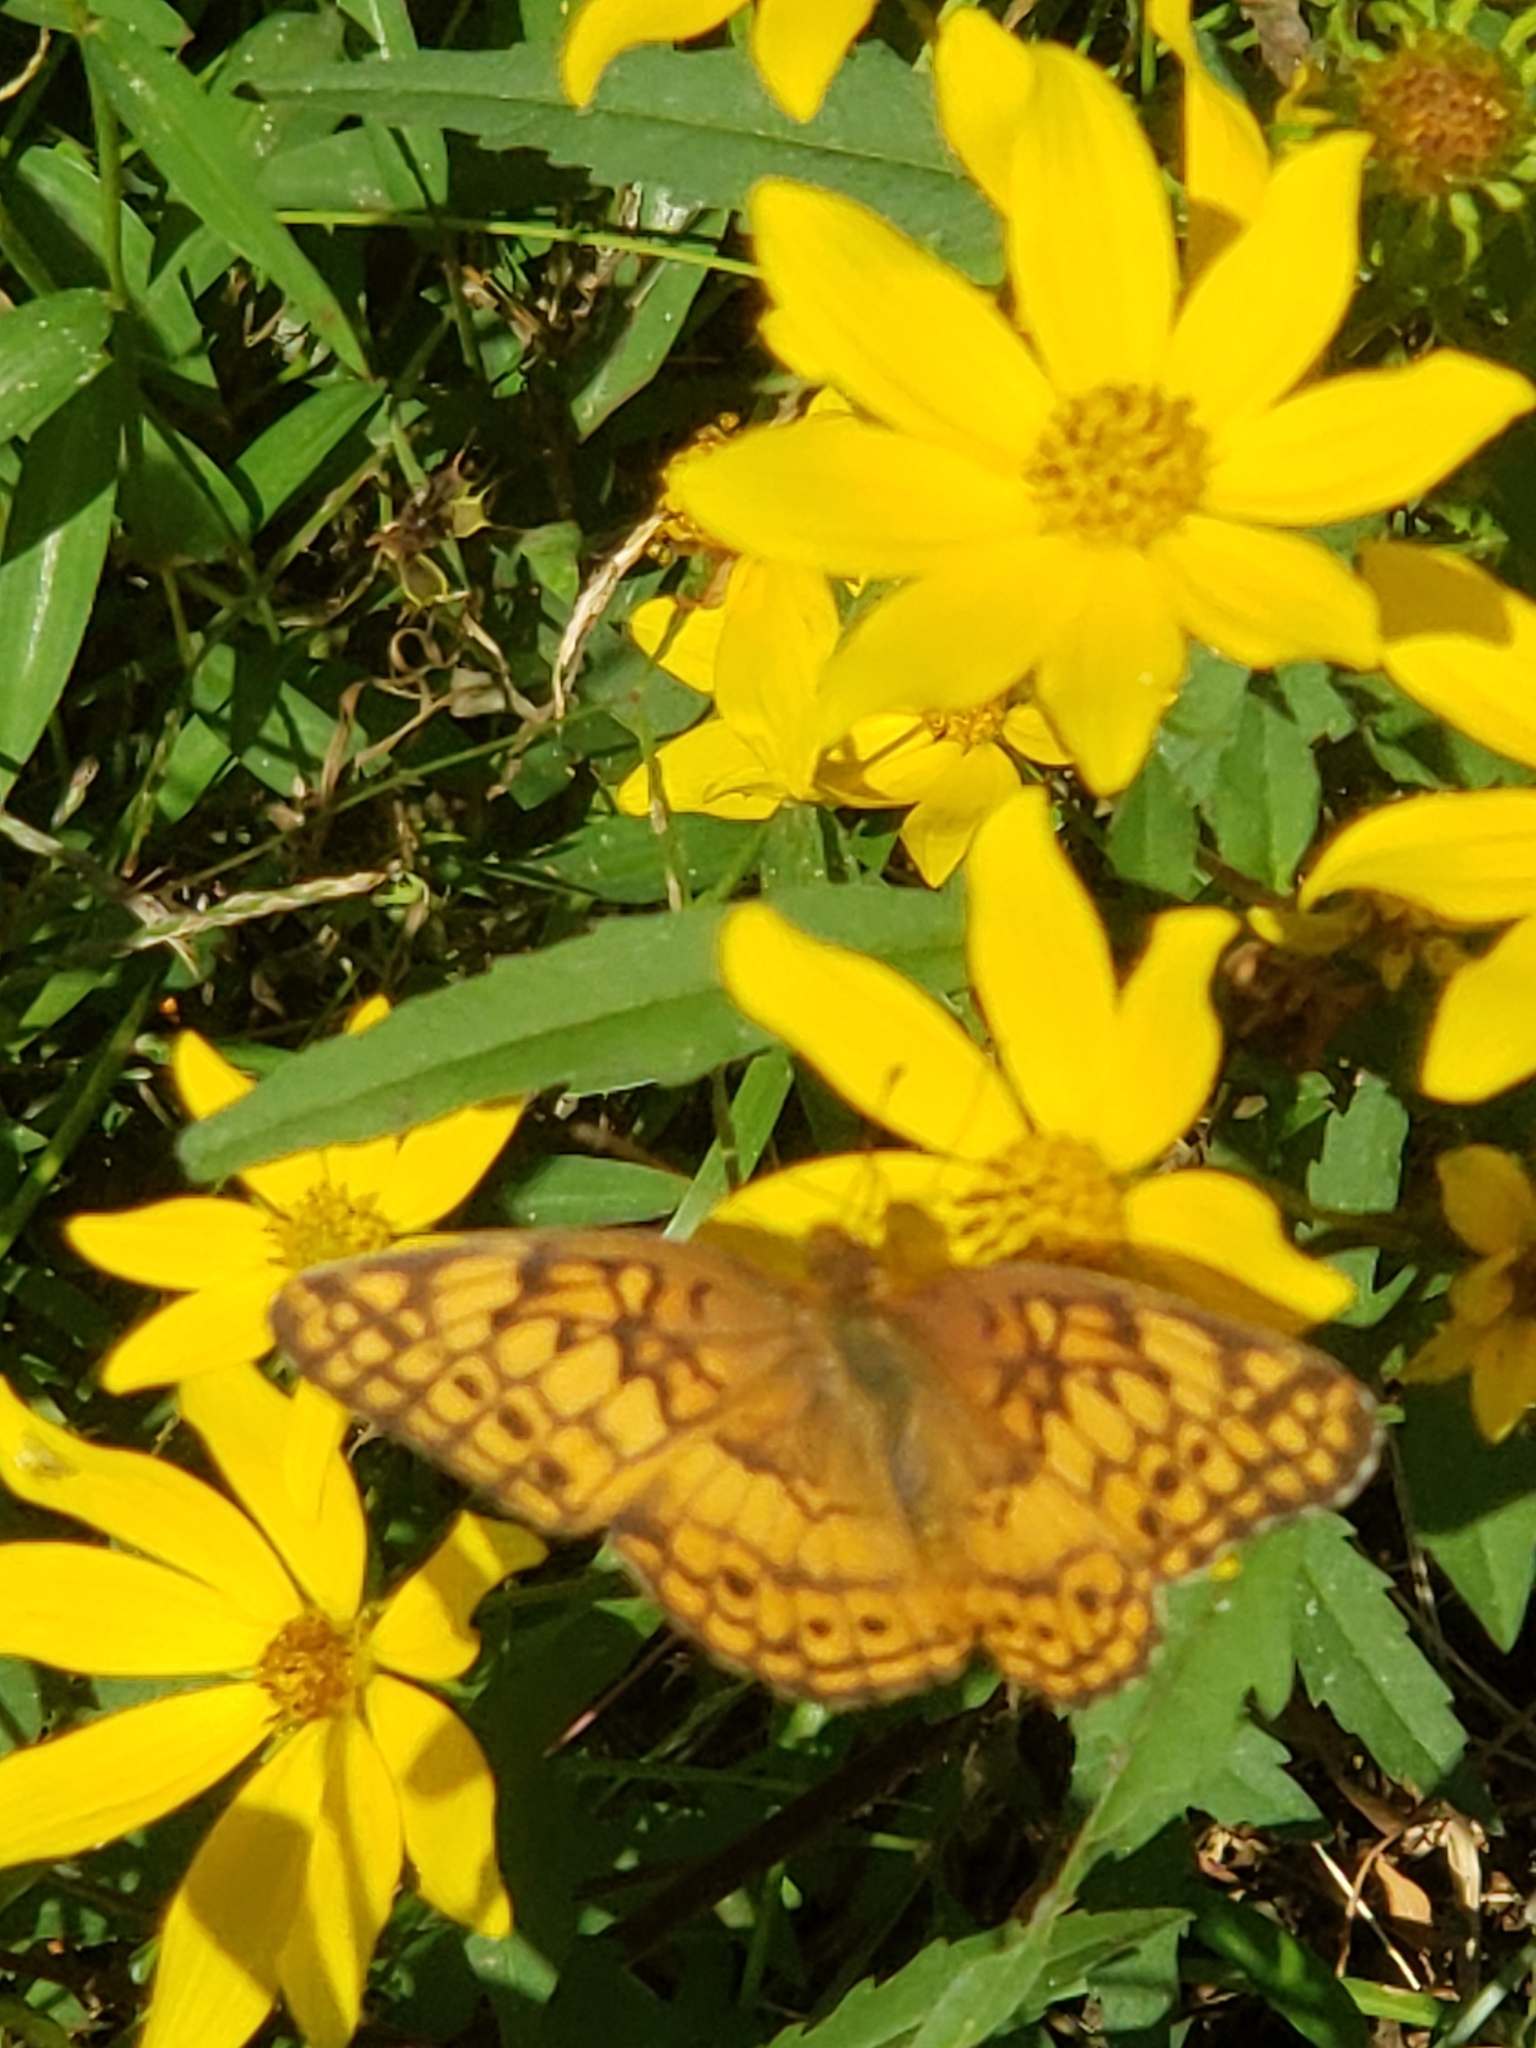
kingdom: Animalia
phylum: Arthropoda
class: Insecta
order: Lepidoptera
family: Nymphalidae
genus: Euptoieta
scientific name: Euptoieta claudia
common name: Variegated fritillary
